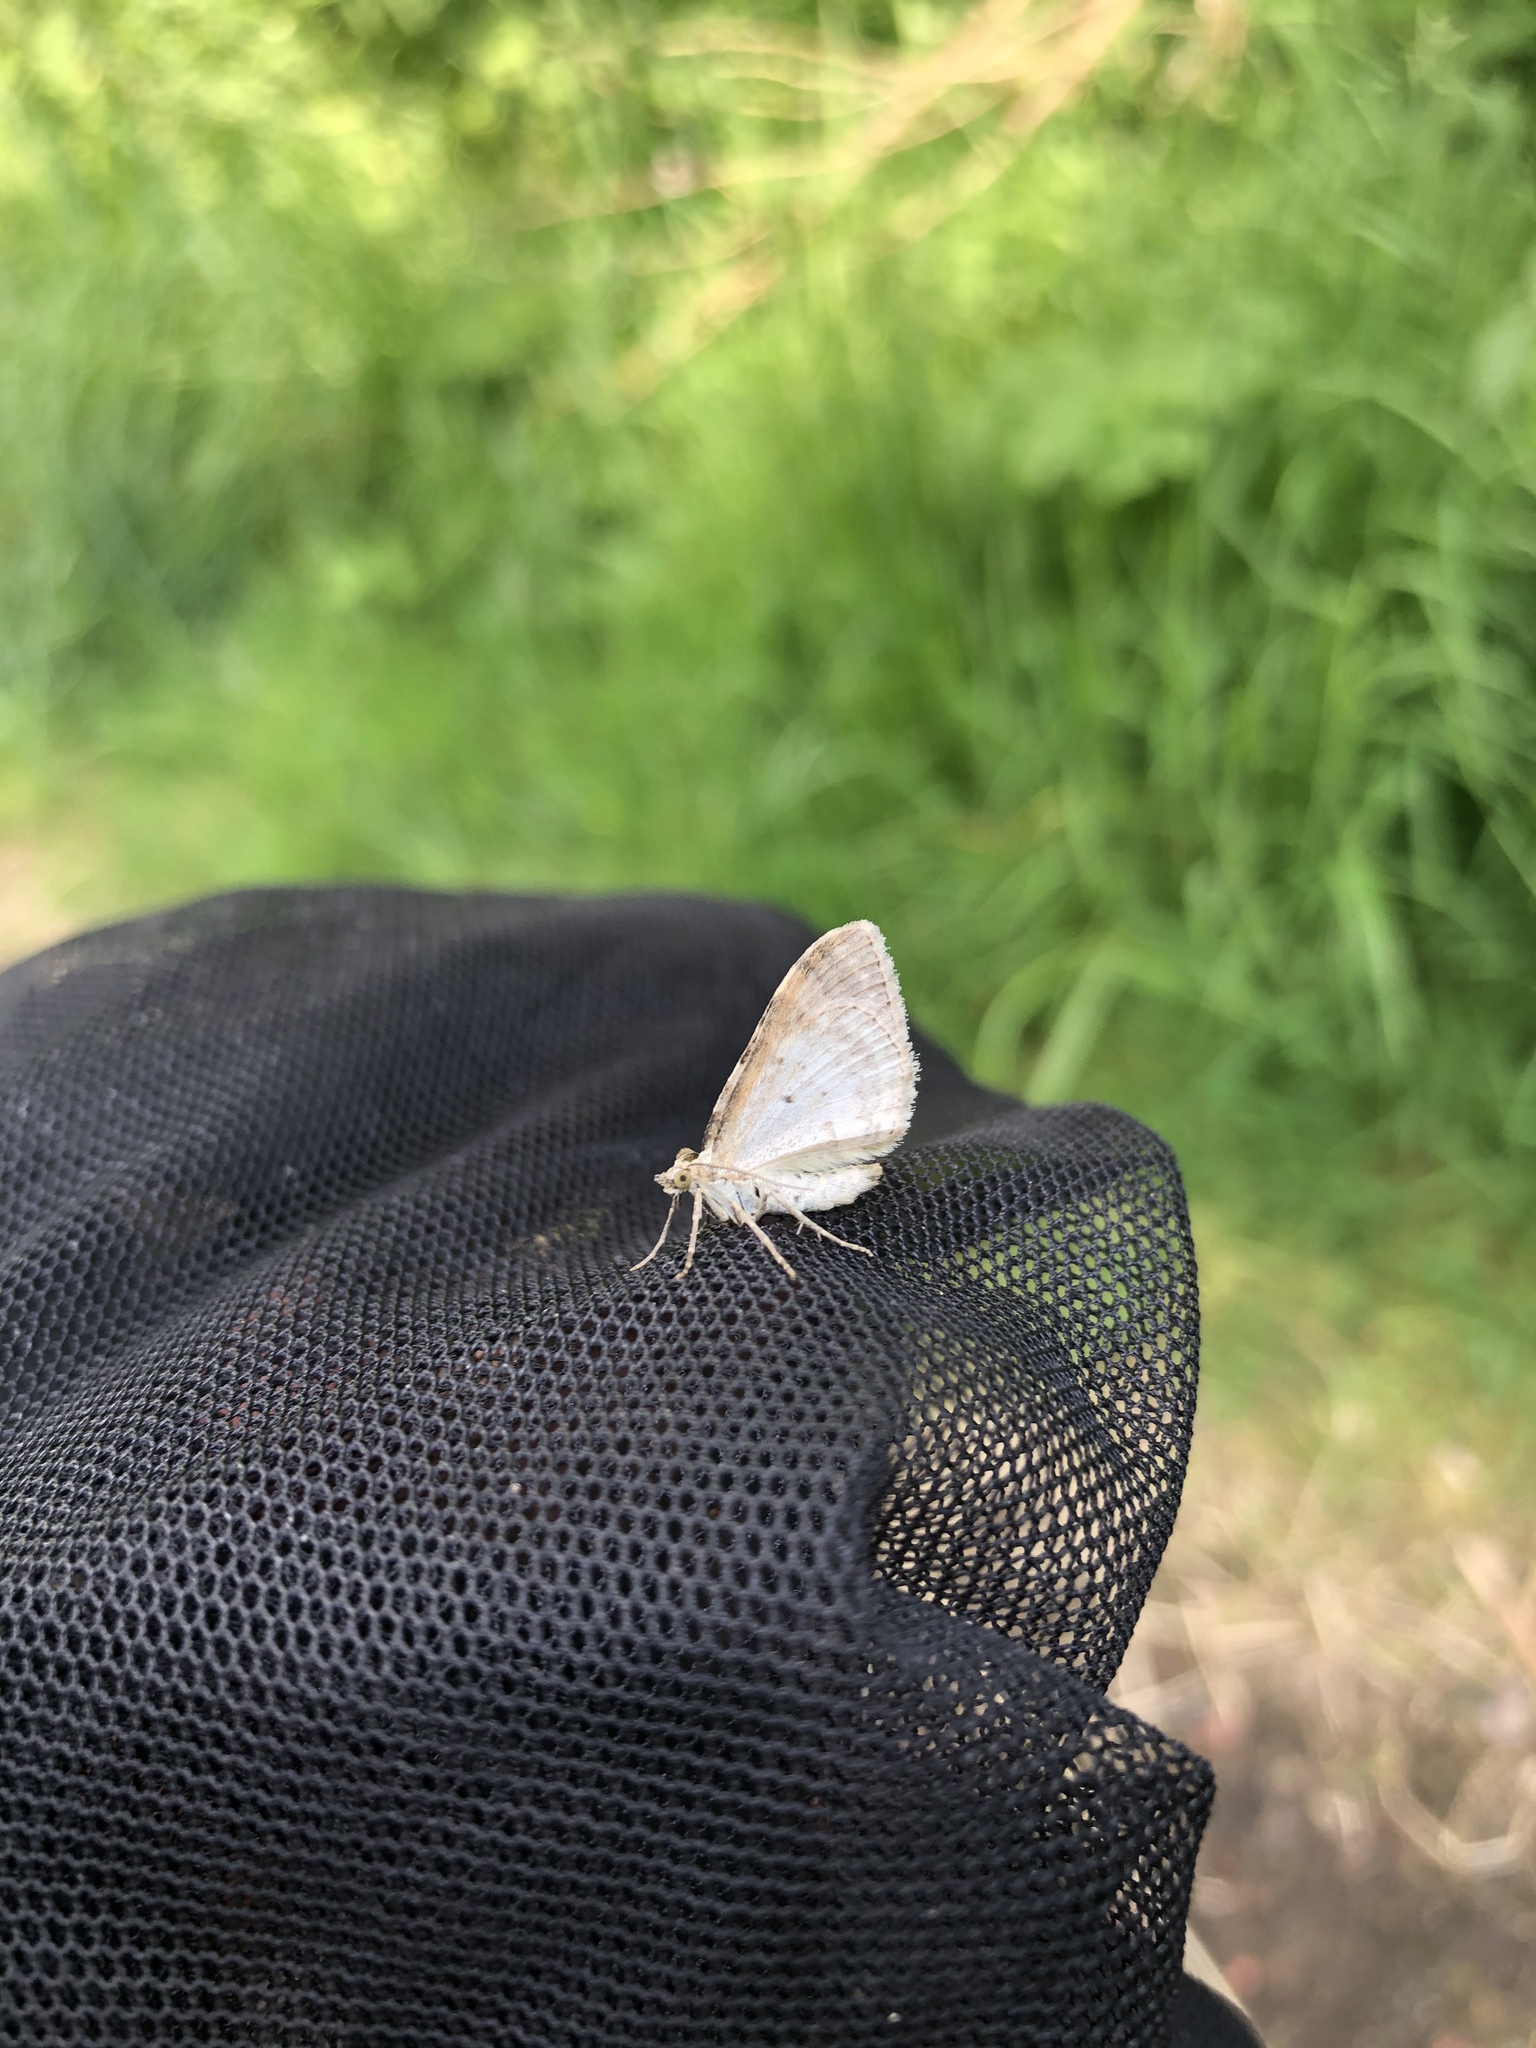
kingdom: Animalia
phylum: Arthropoda
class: Insecta
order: Lepidoptera
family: Geometridae
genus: Xanthorhoe
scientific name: Xanthorhoe montanata
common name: Silver-ground carpet
